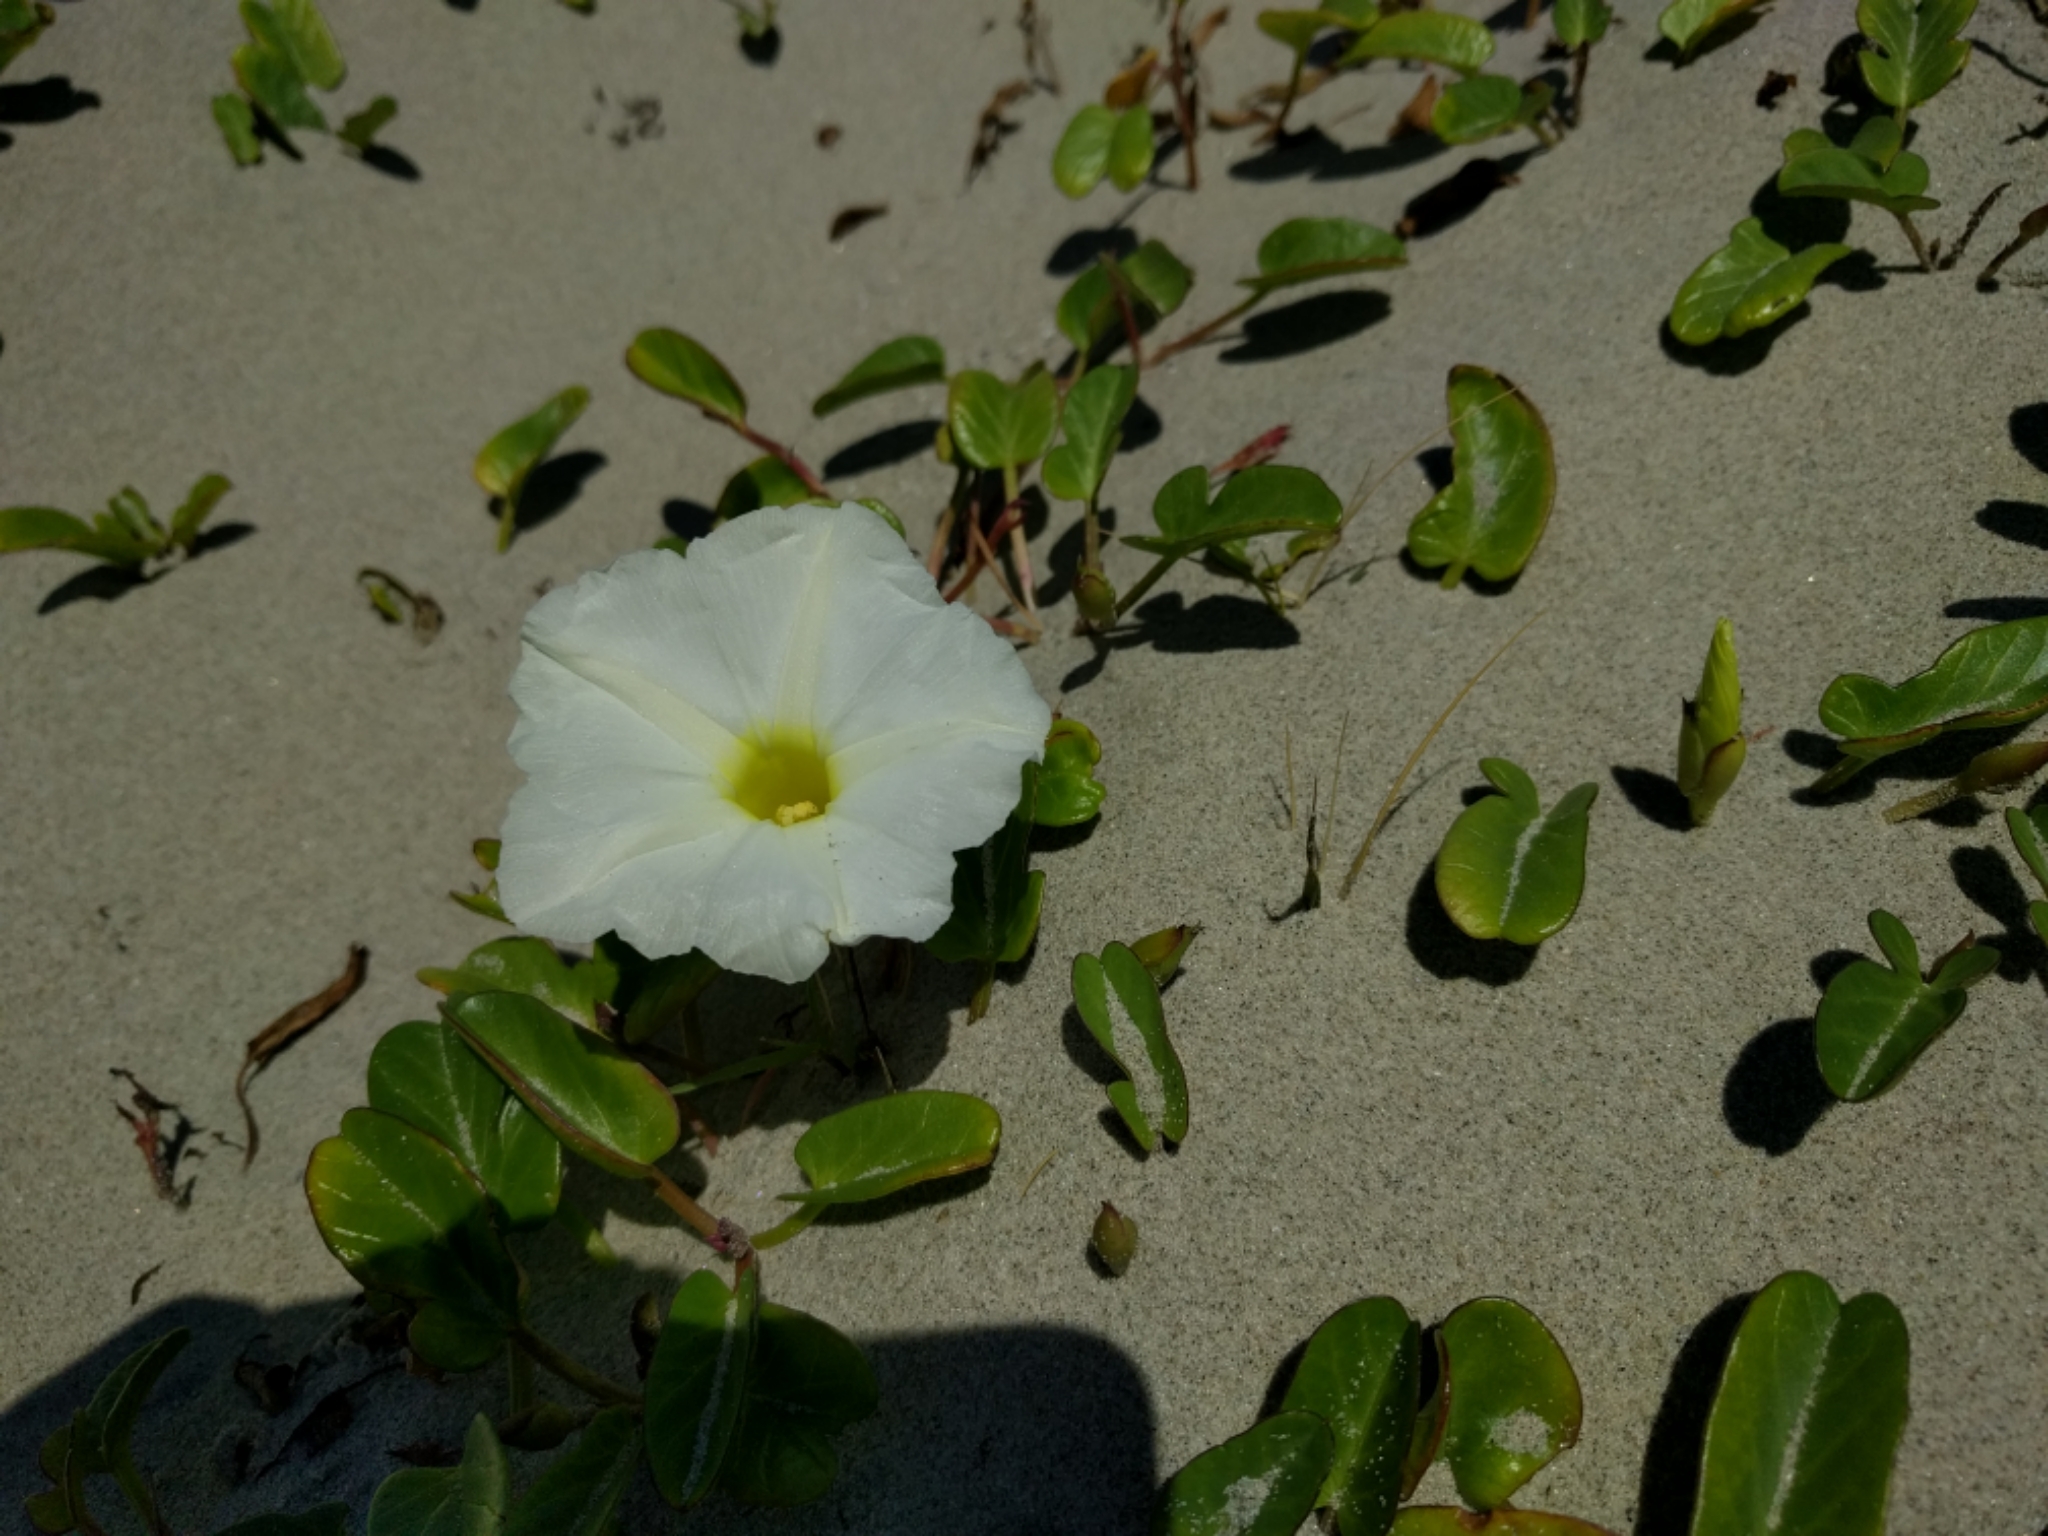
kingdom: Plantae
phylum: Tracheophyta
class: Magnoliopsida
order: Solanales
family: Convolvulaceae
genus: Ipomoea
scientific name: Ipomoea imperati
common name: Fiddle-leaf morning-glory
